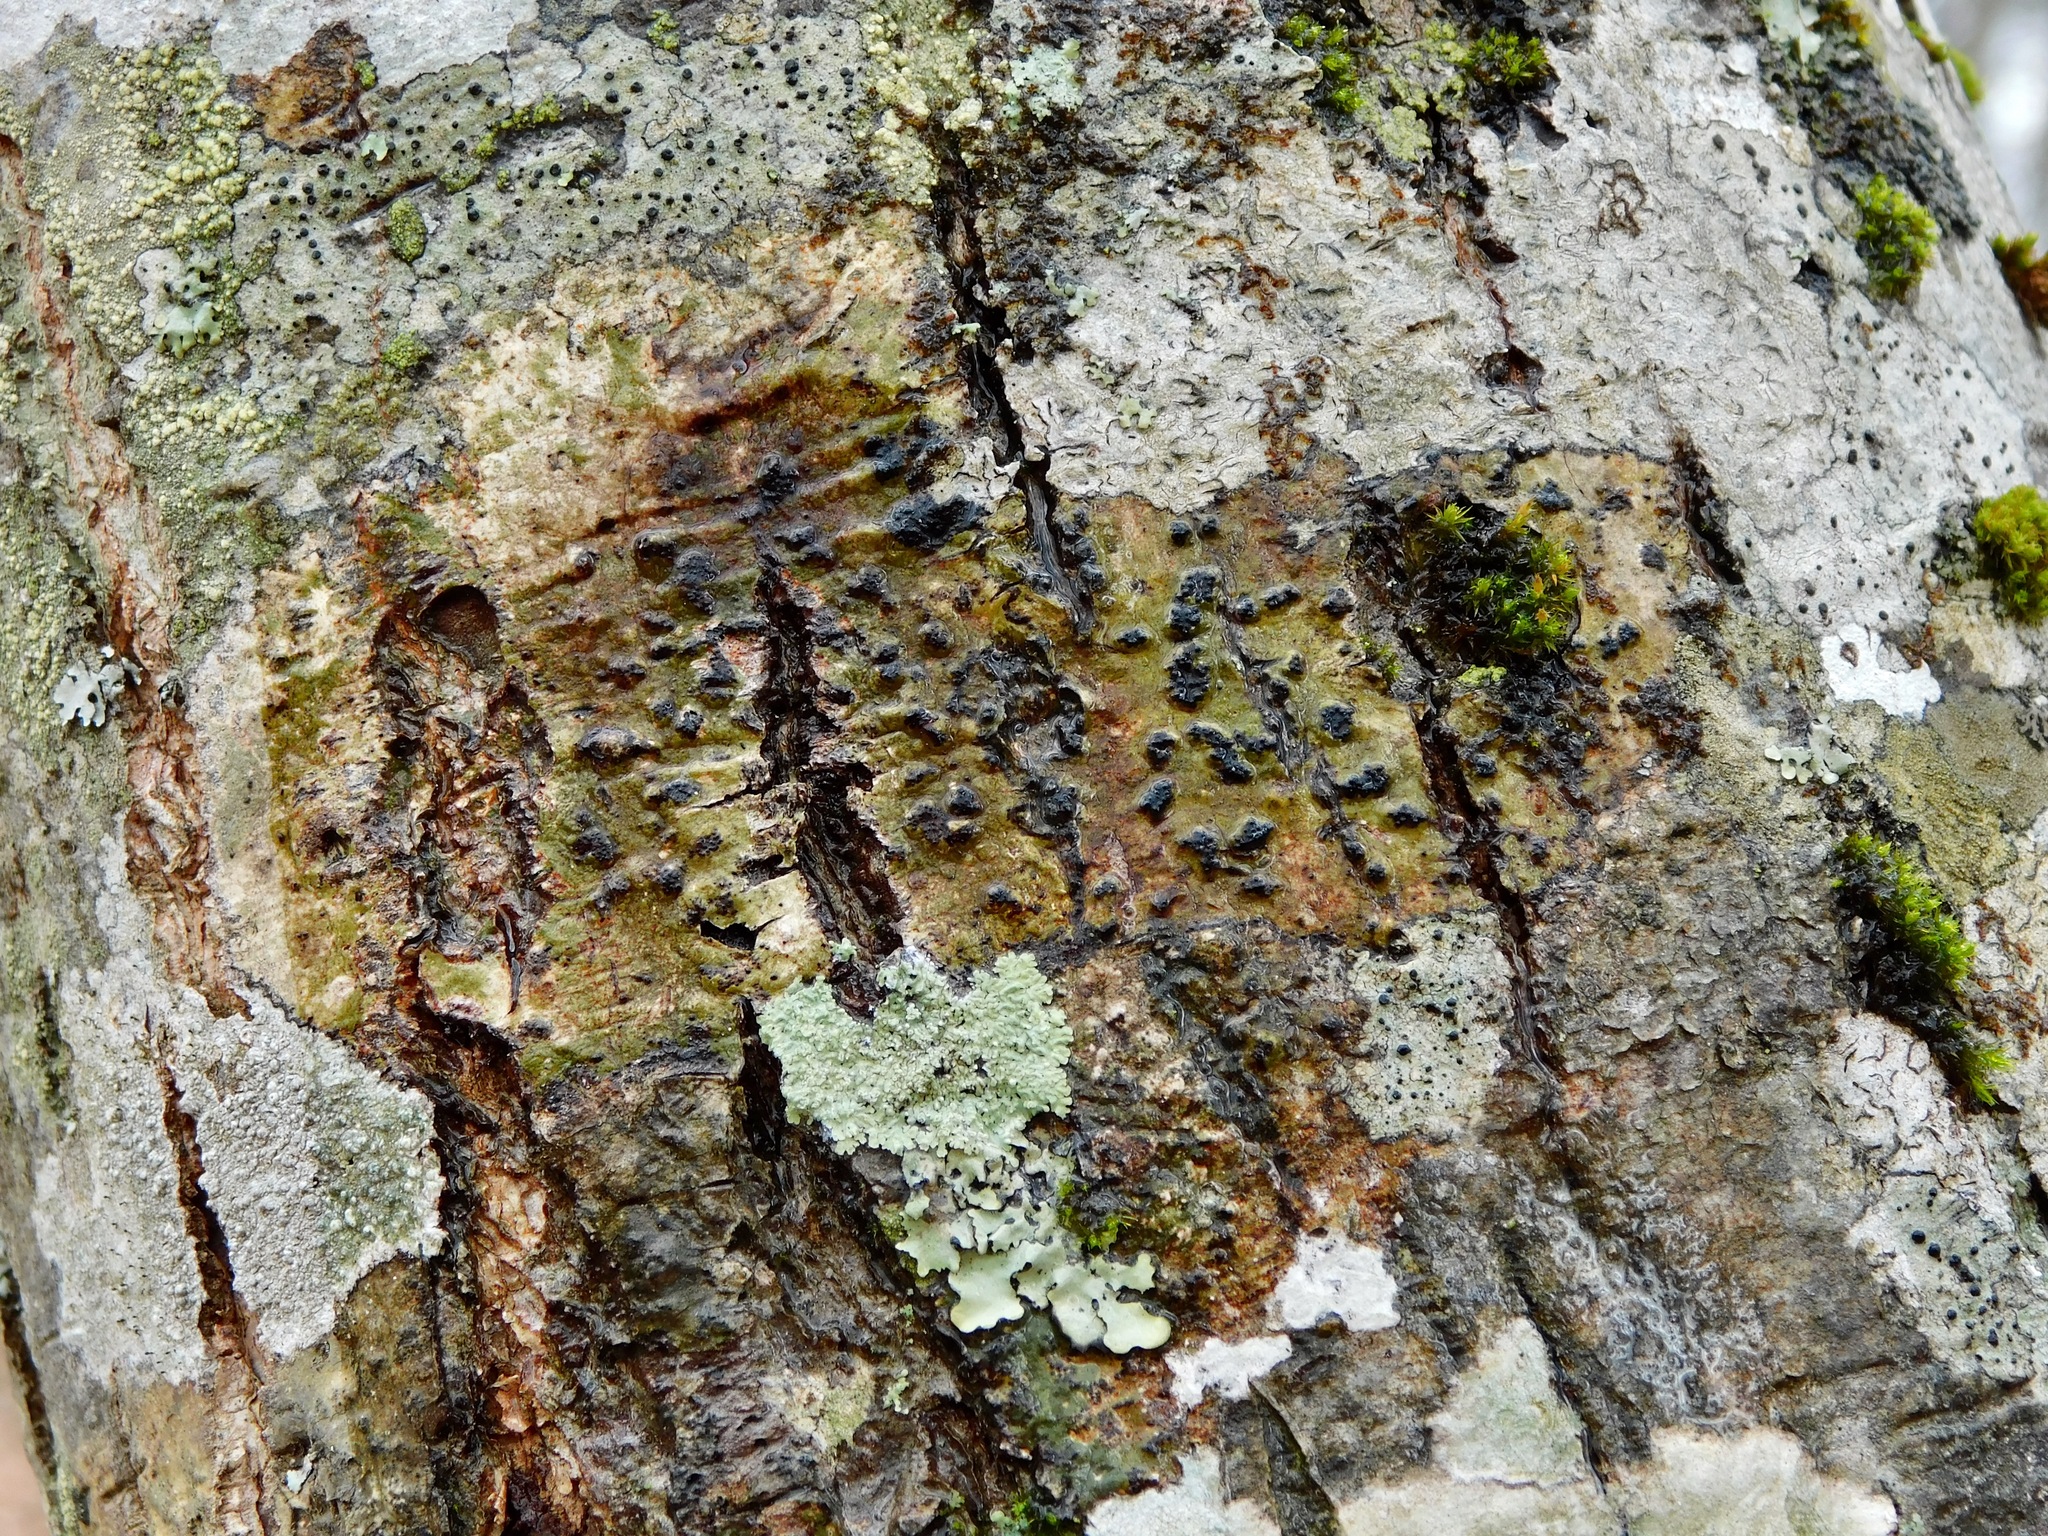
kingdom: Fungi
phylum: Ascomycota
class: Dothideomycetes
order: Trypetheliales
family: Trypetheliaceae
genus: Bathelium
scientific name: Bathelium carolinianum
